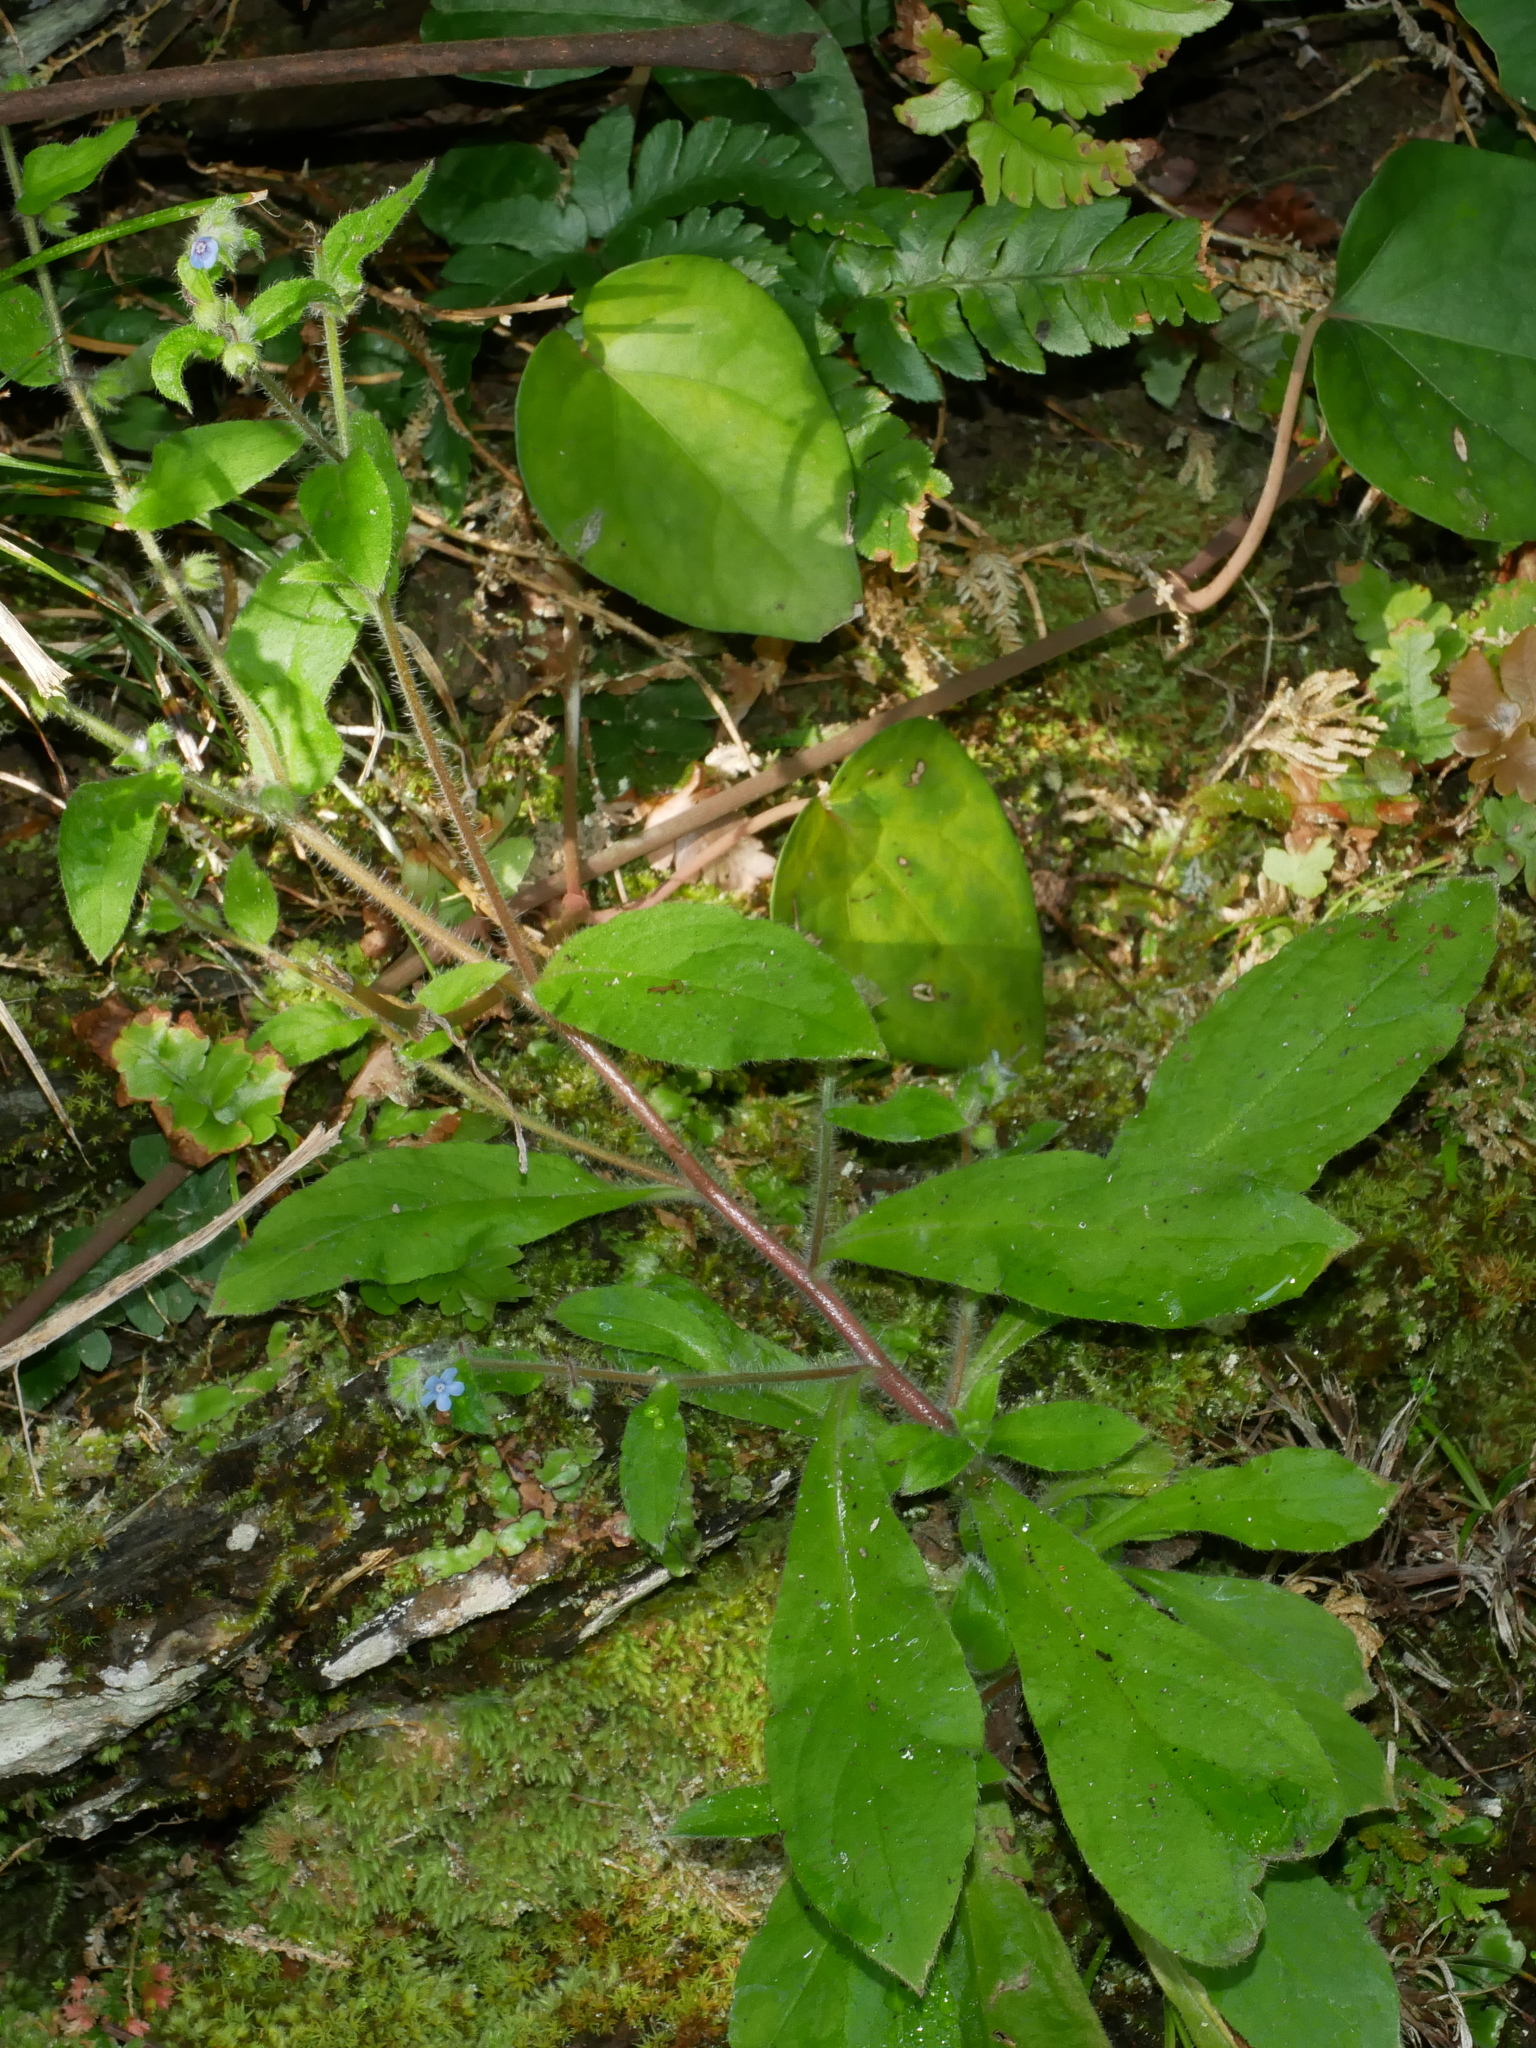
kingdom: Plantae
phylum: Tracheophyta
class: Magnoliopsida
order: Boraginales
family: Boraginaceae
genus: Thyrocarpus
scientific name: Thyrocarpus sampsonii
